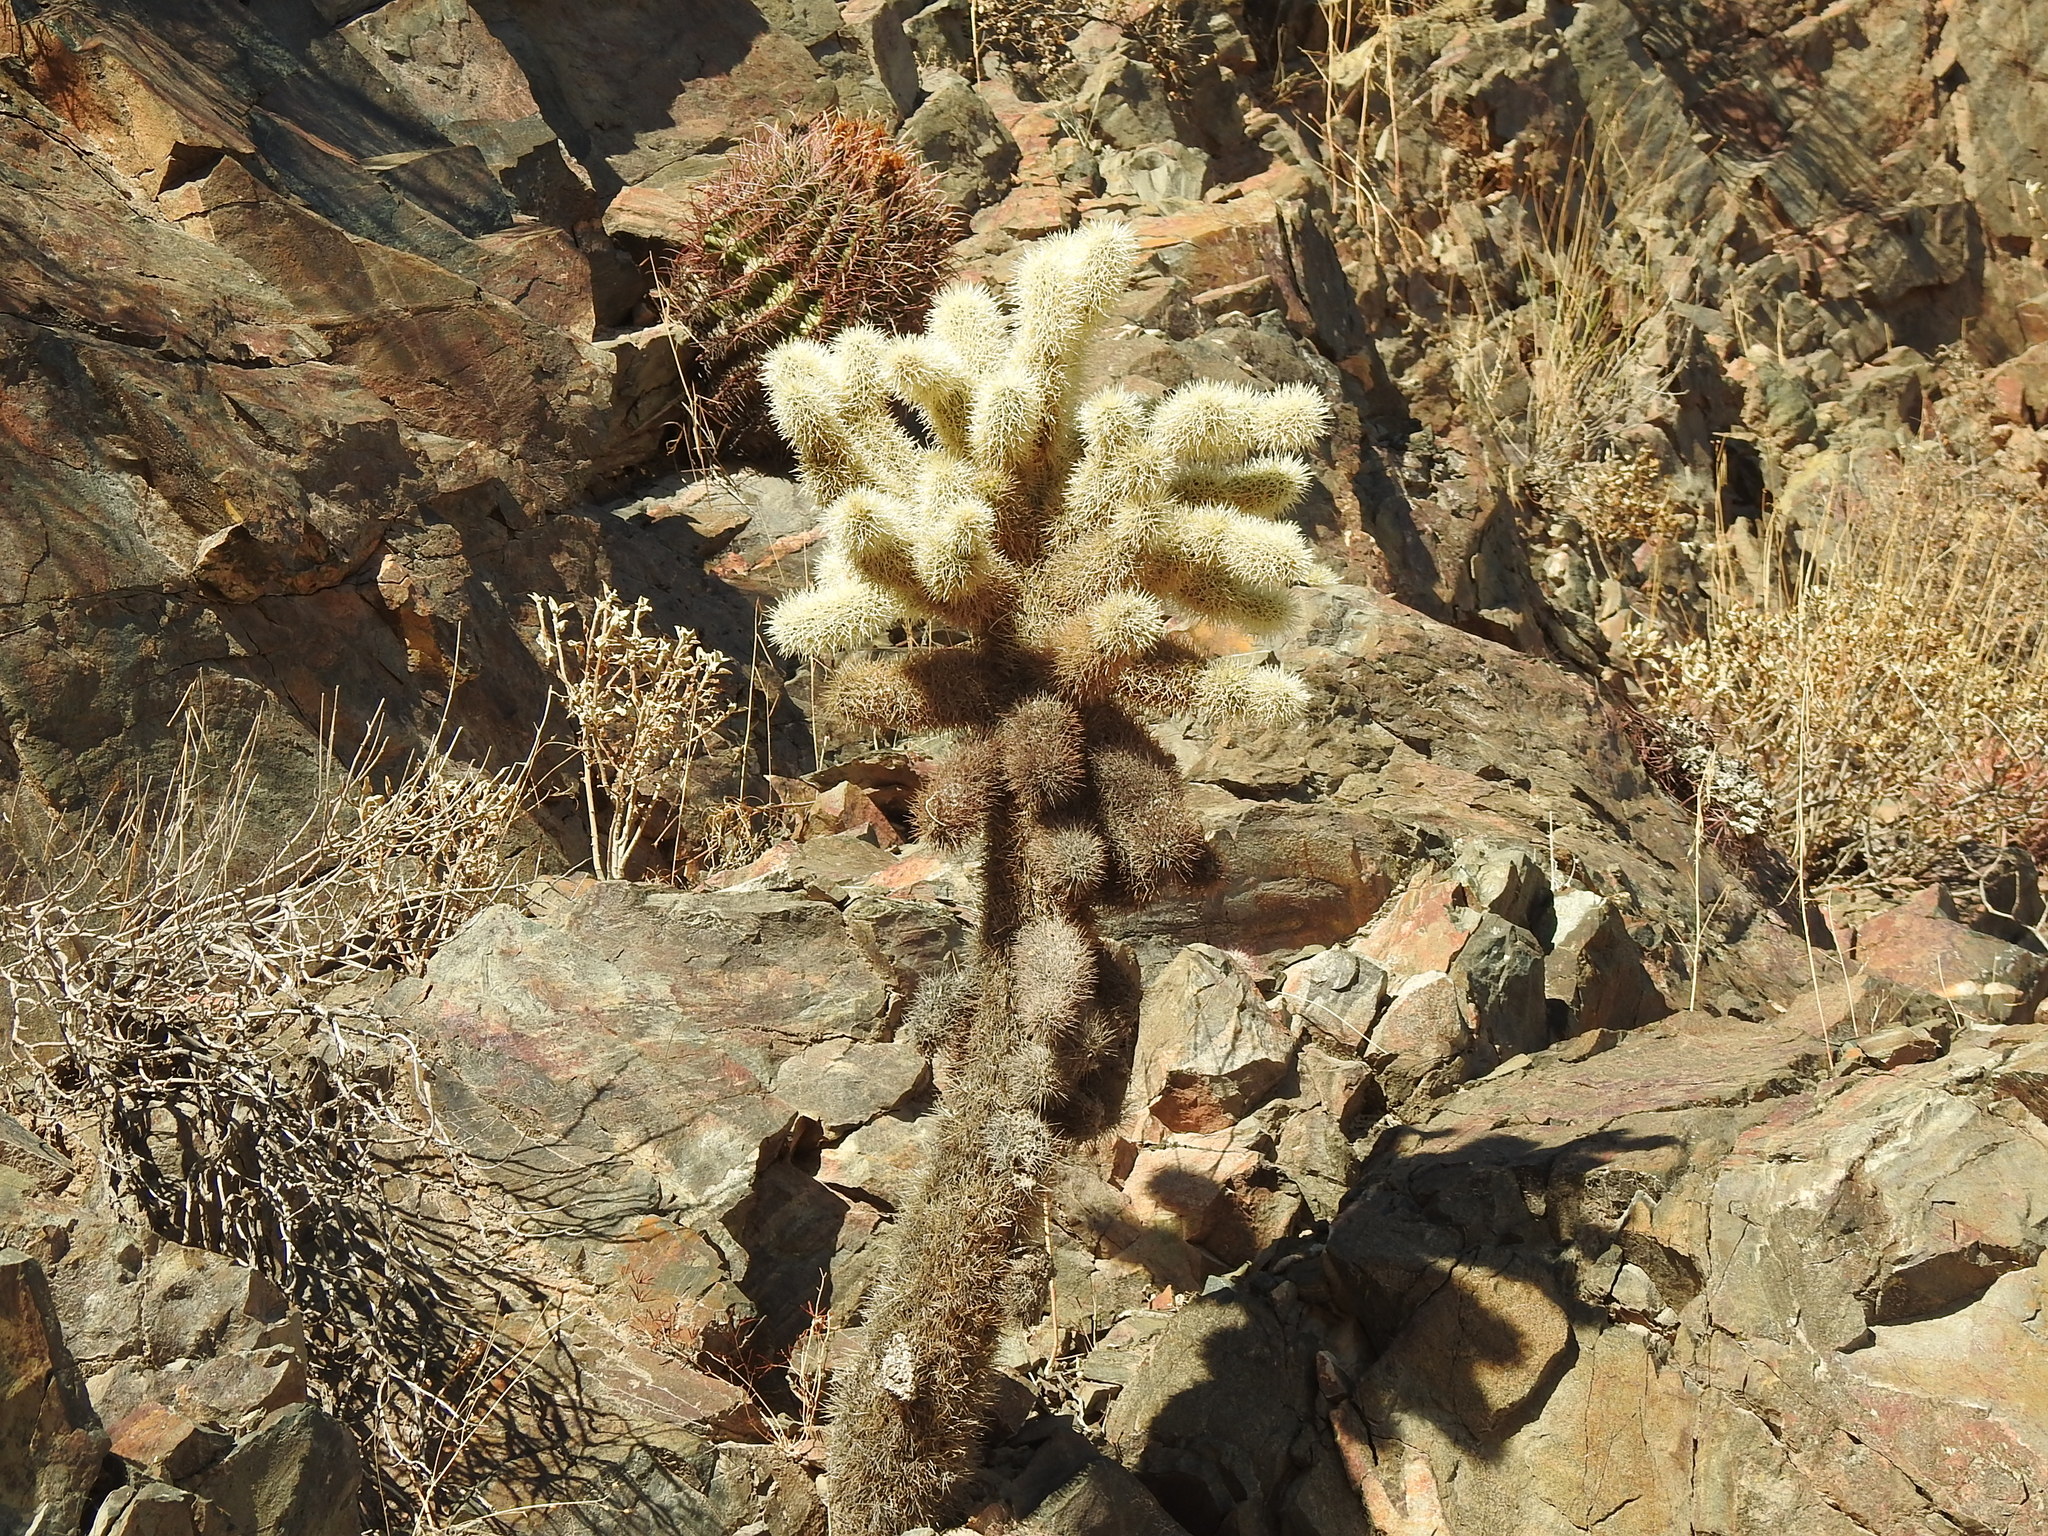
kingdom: Plantae
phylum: Tracheophyta
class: Magnoliopsida
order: Caryophyllales
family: Cactaceae
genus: Cylindropuntia
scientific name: Cylindropuntia fosbergii
